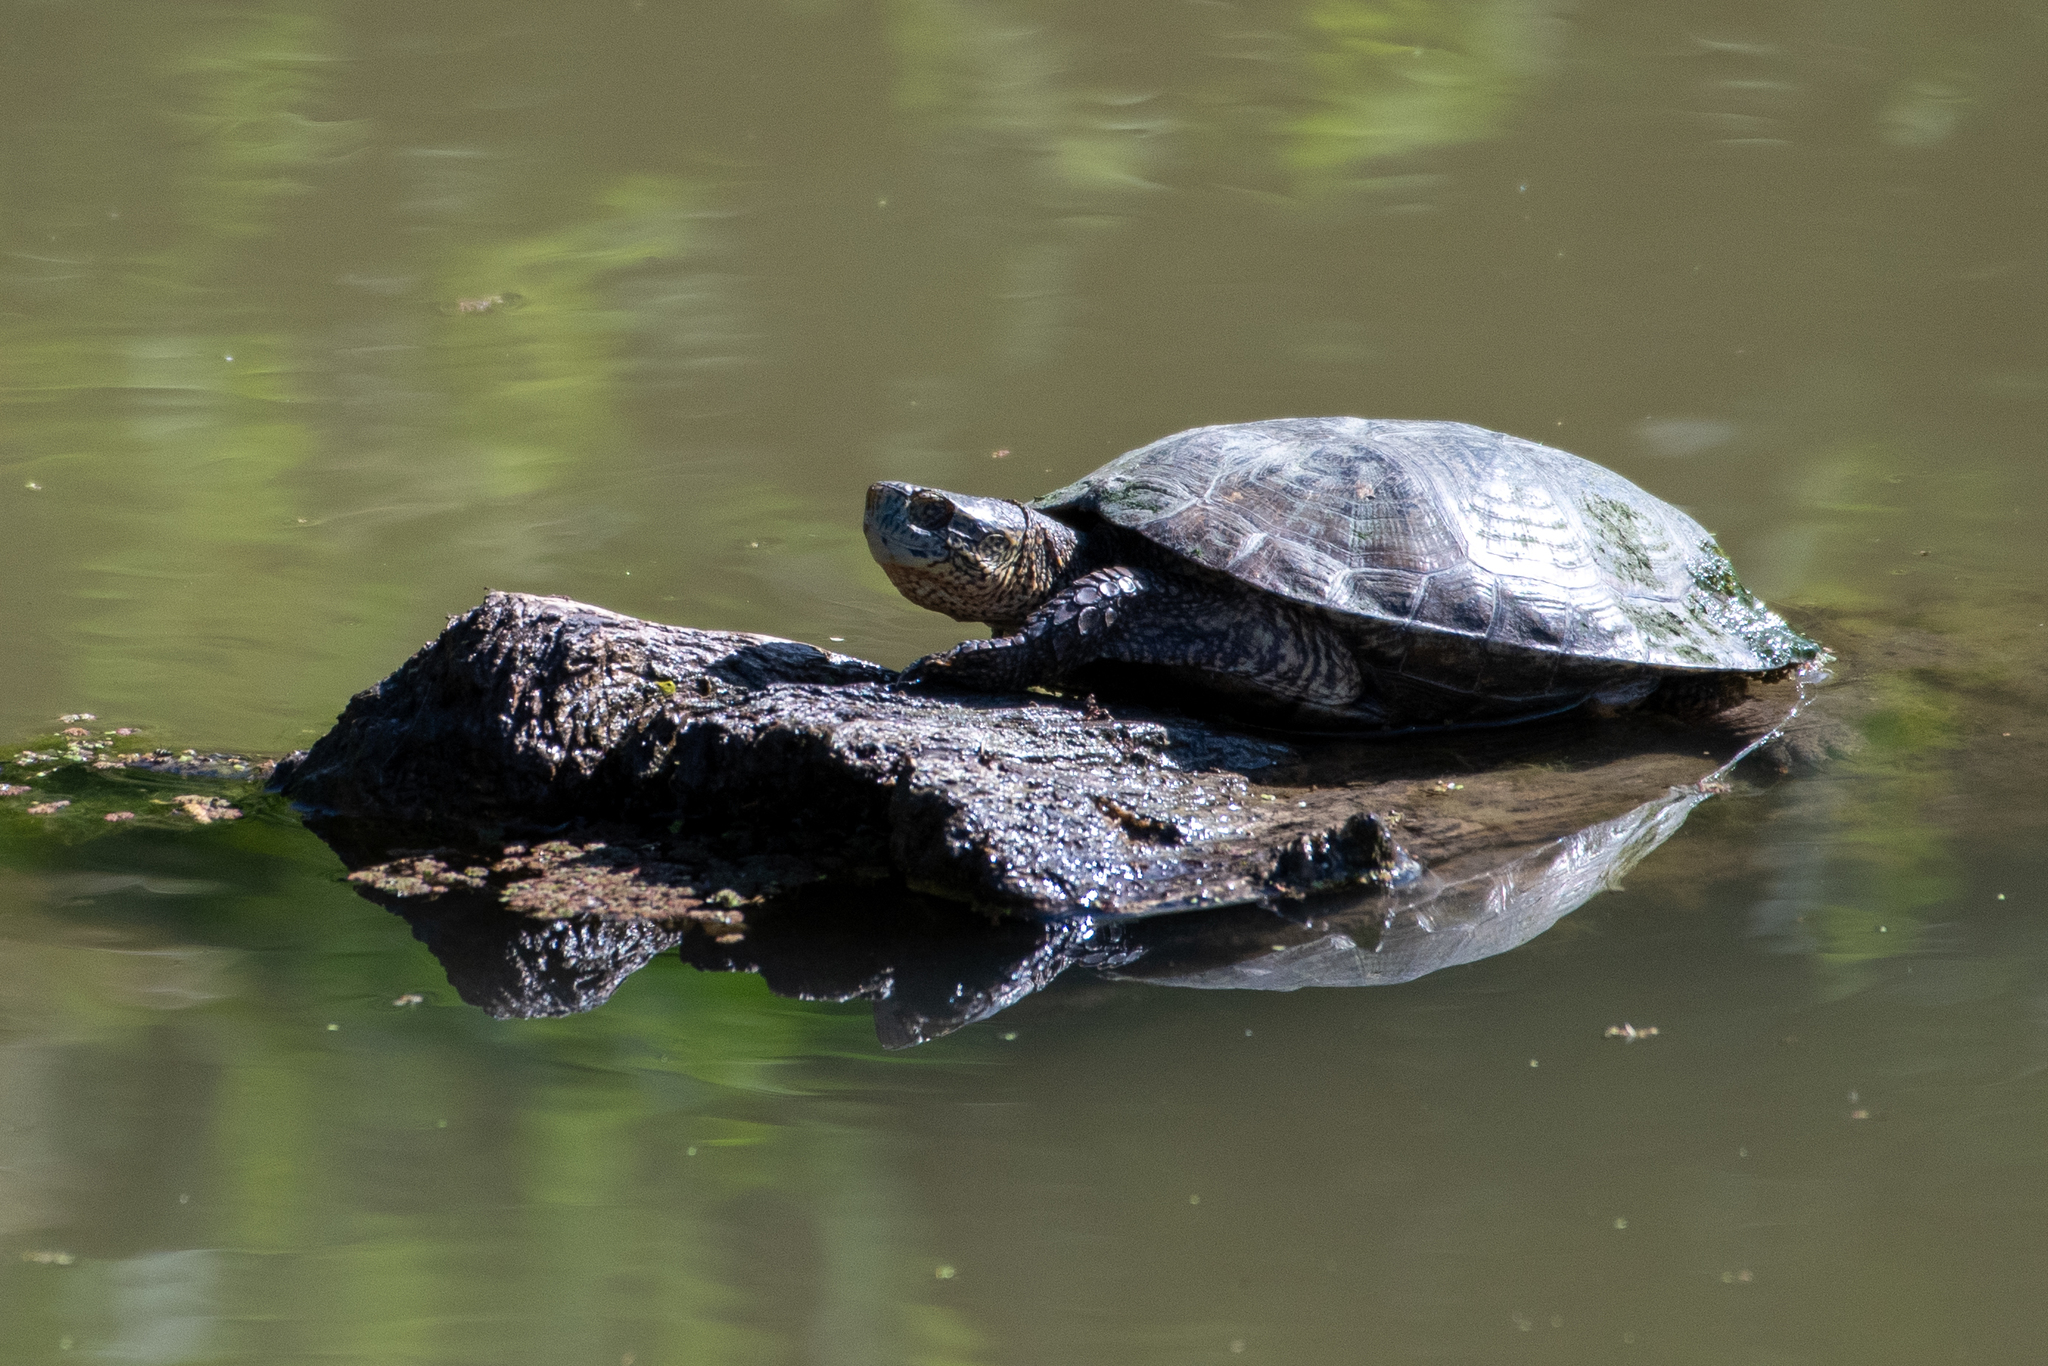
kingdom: Animalia
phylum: Chordata
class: Testudines
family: Emydidae
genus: Actinemys
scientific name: Actinemys marmorata
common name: Western pond turtle
